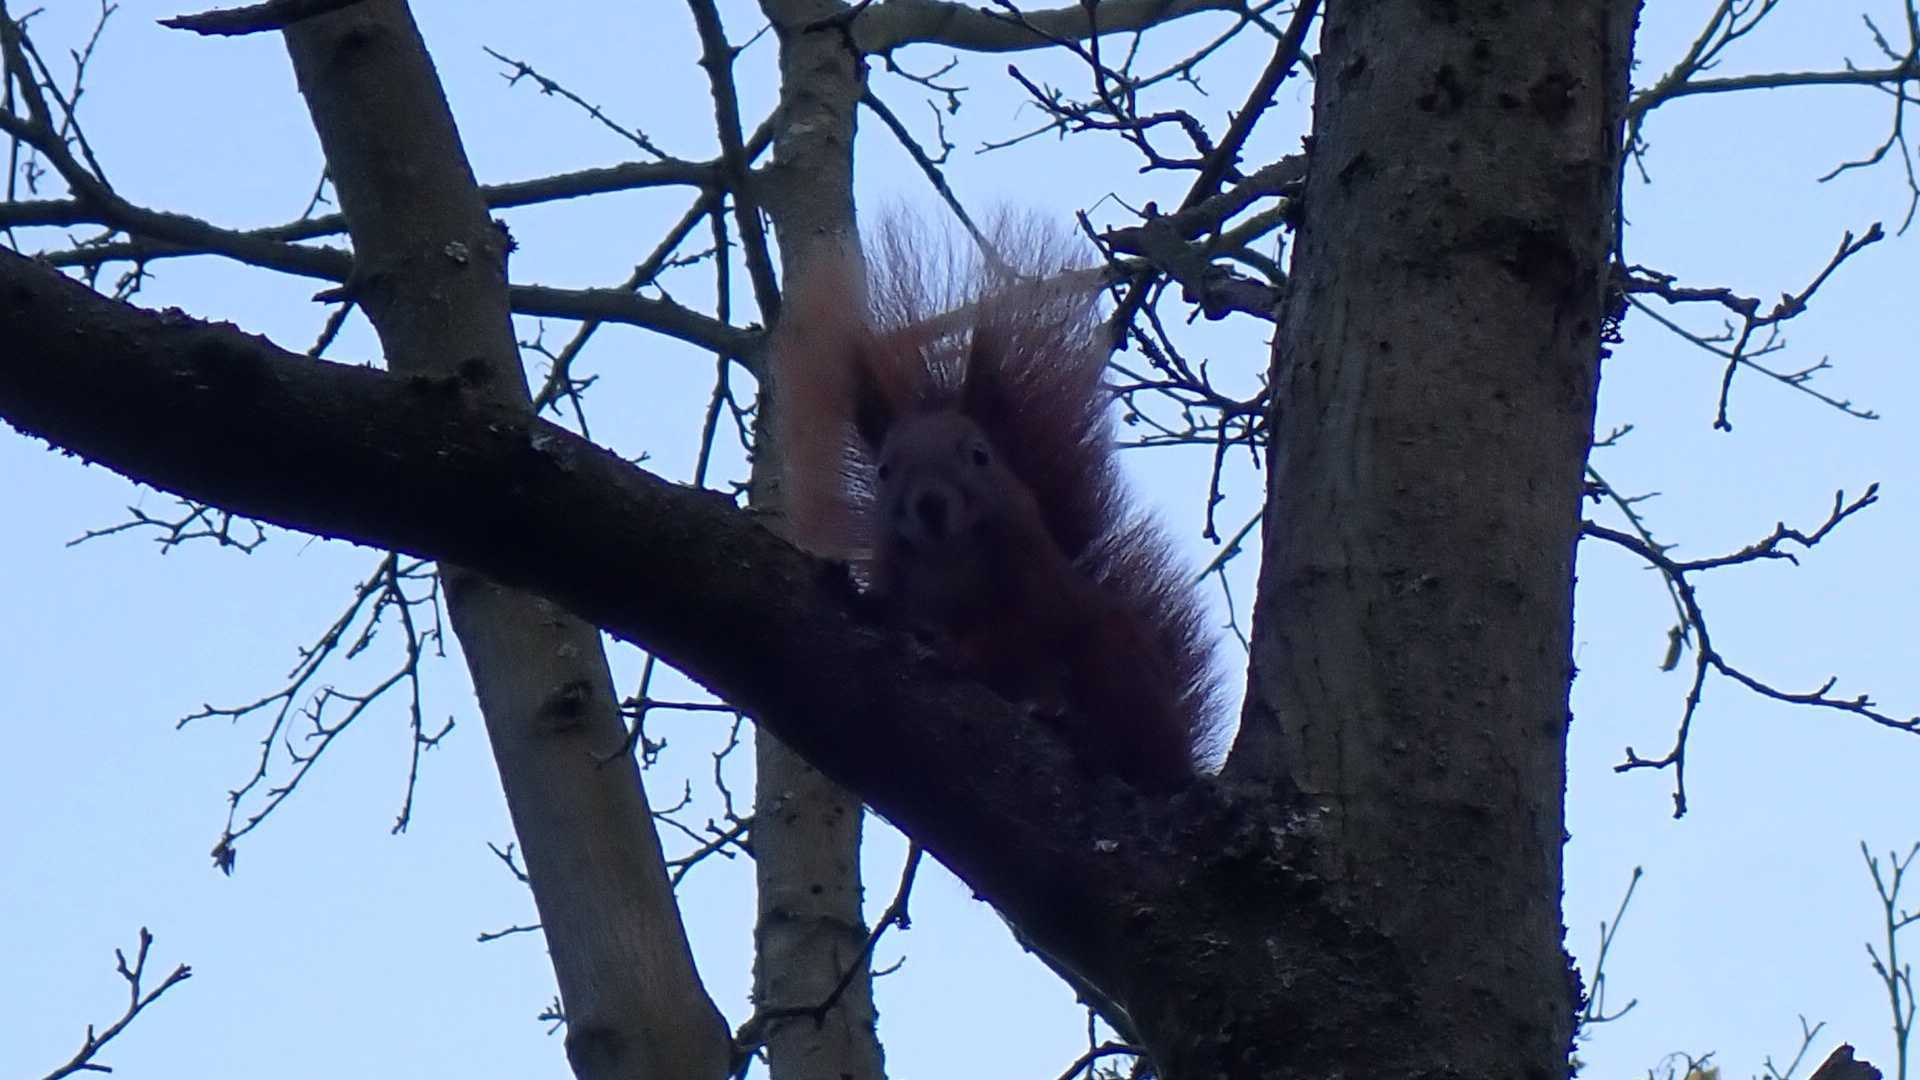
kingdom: Animalia
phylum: Chordata
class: Mammalia
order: Rodentia
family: Sciuridae
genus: Sciurus
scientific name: Sciurus vulgaris
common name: Eurasian red squirrel
